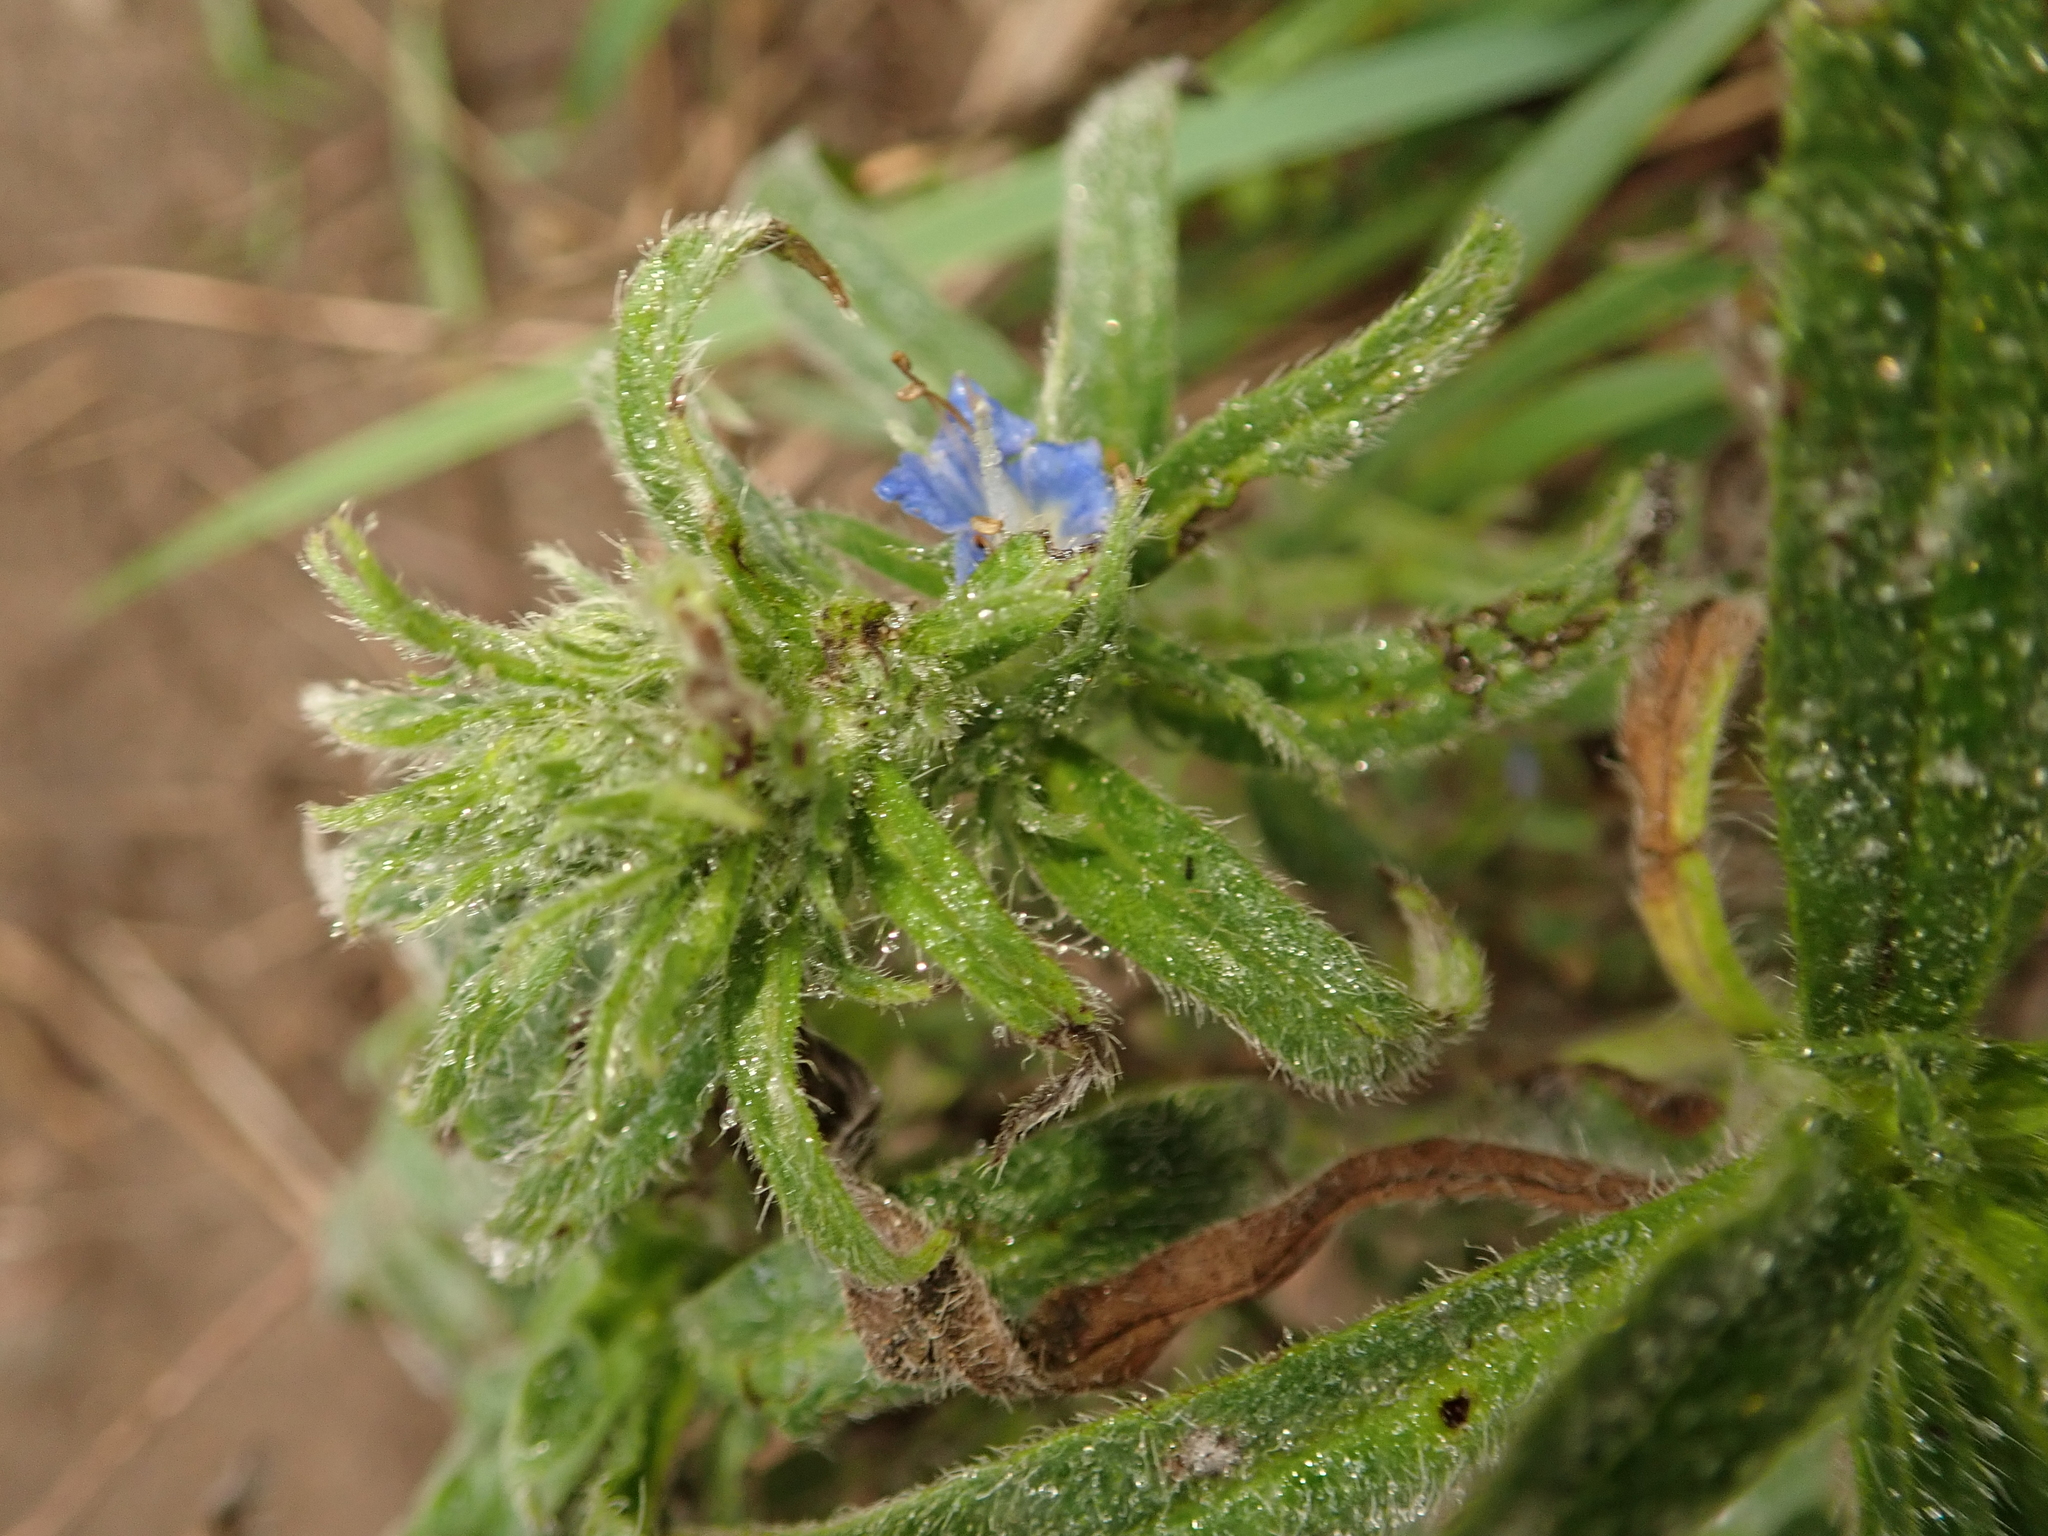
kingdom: Plantae
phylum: Tracheophyta
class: Magnoliopsida
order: Boraginales
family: Boraginaceae
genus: Echium
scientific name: Echium vulgare
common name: Common viper's bugloss
